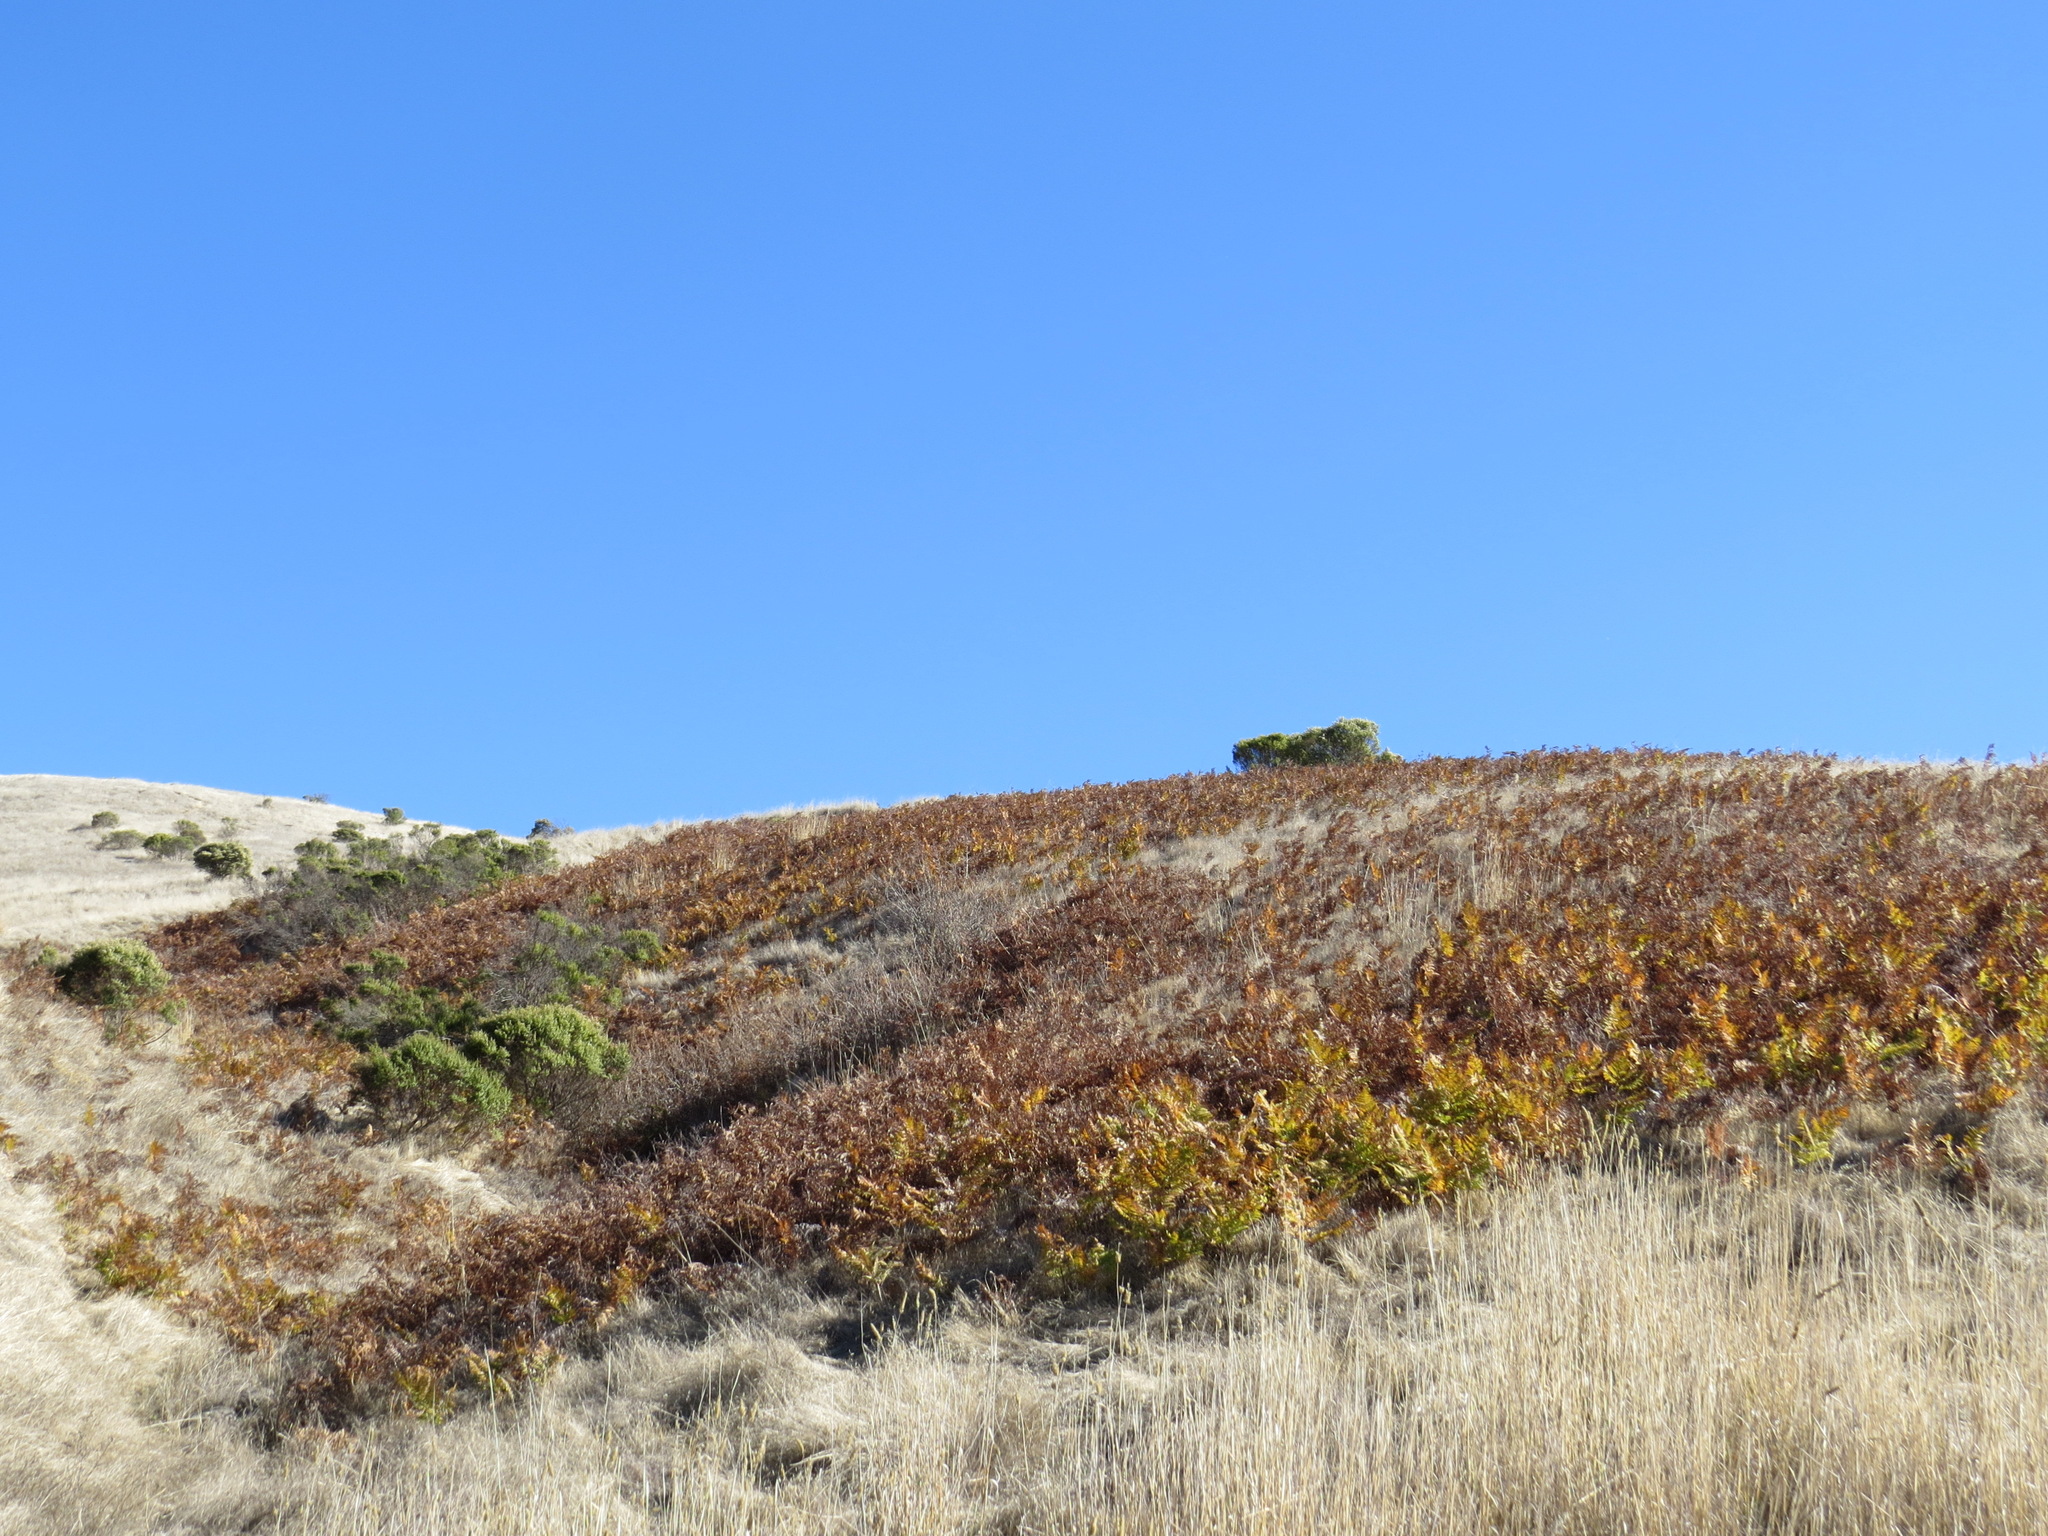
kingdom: Plantae
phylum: Tracheophyta
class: Polypodiopsida
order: Polypodiales
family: Dennstaedtiaceae
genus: Pteridium
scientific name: Pteridium aquilinum
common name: Bracken
